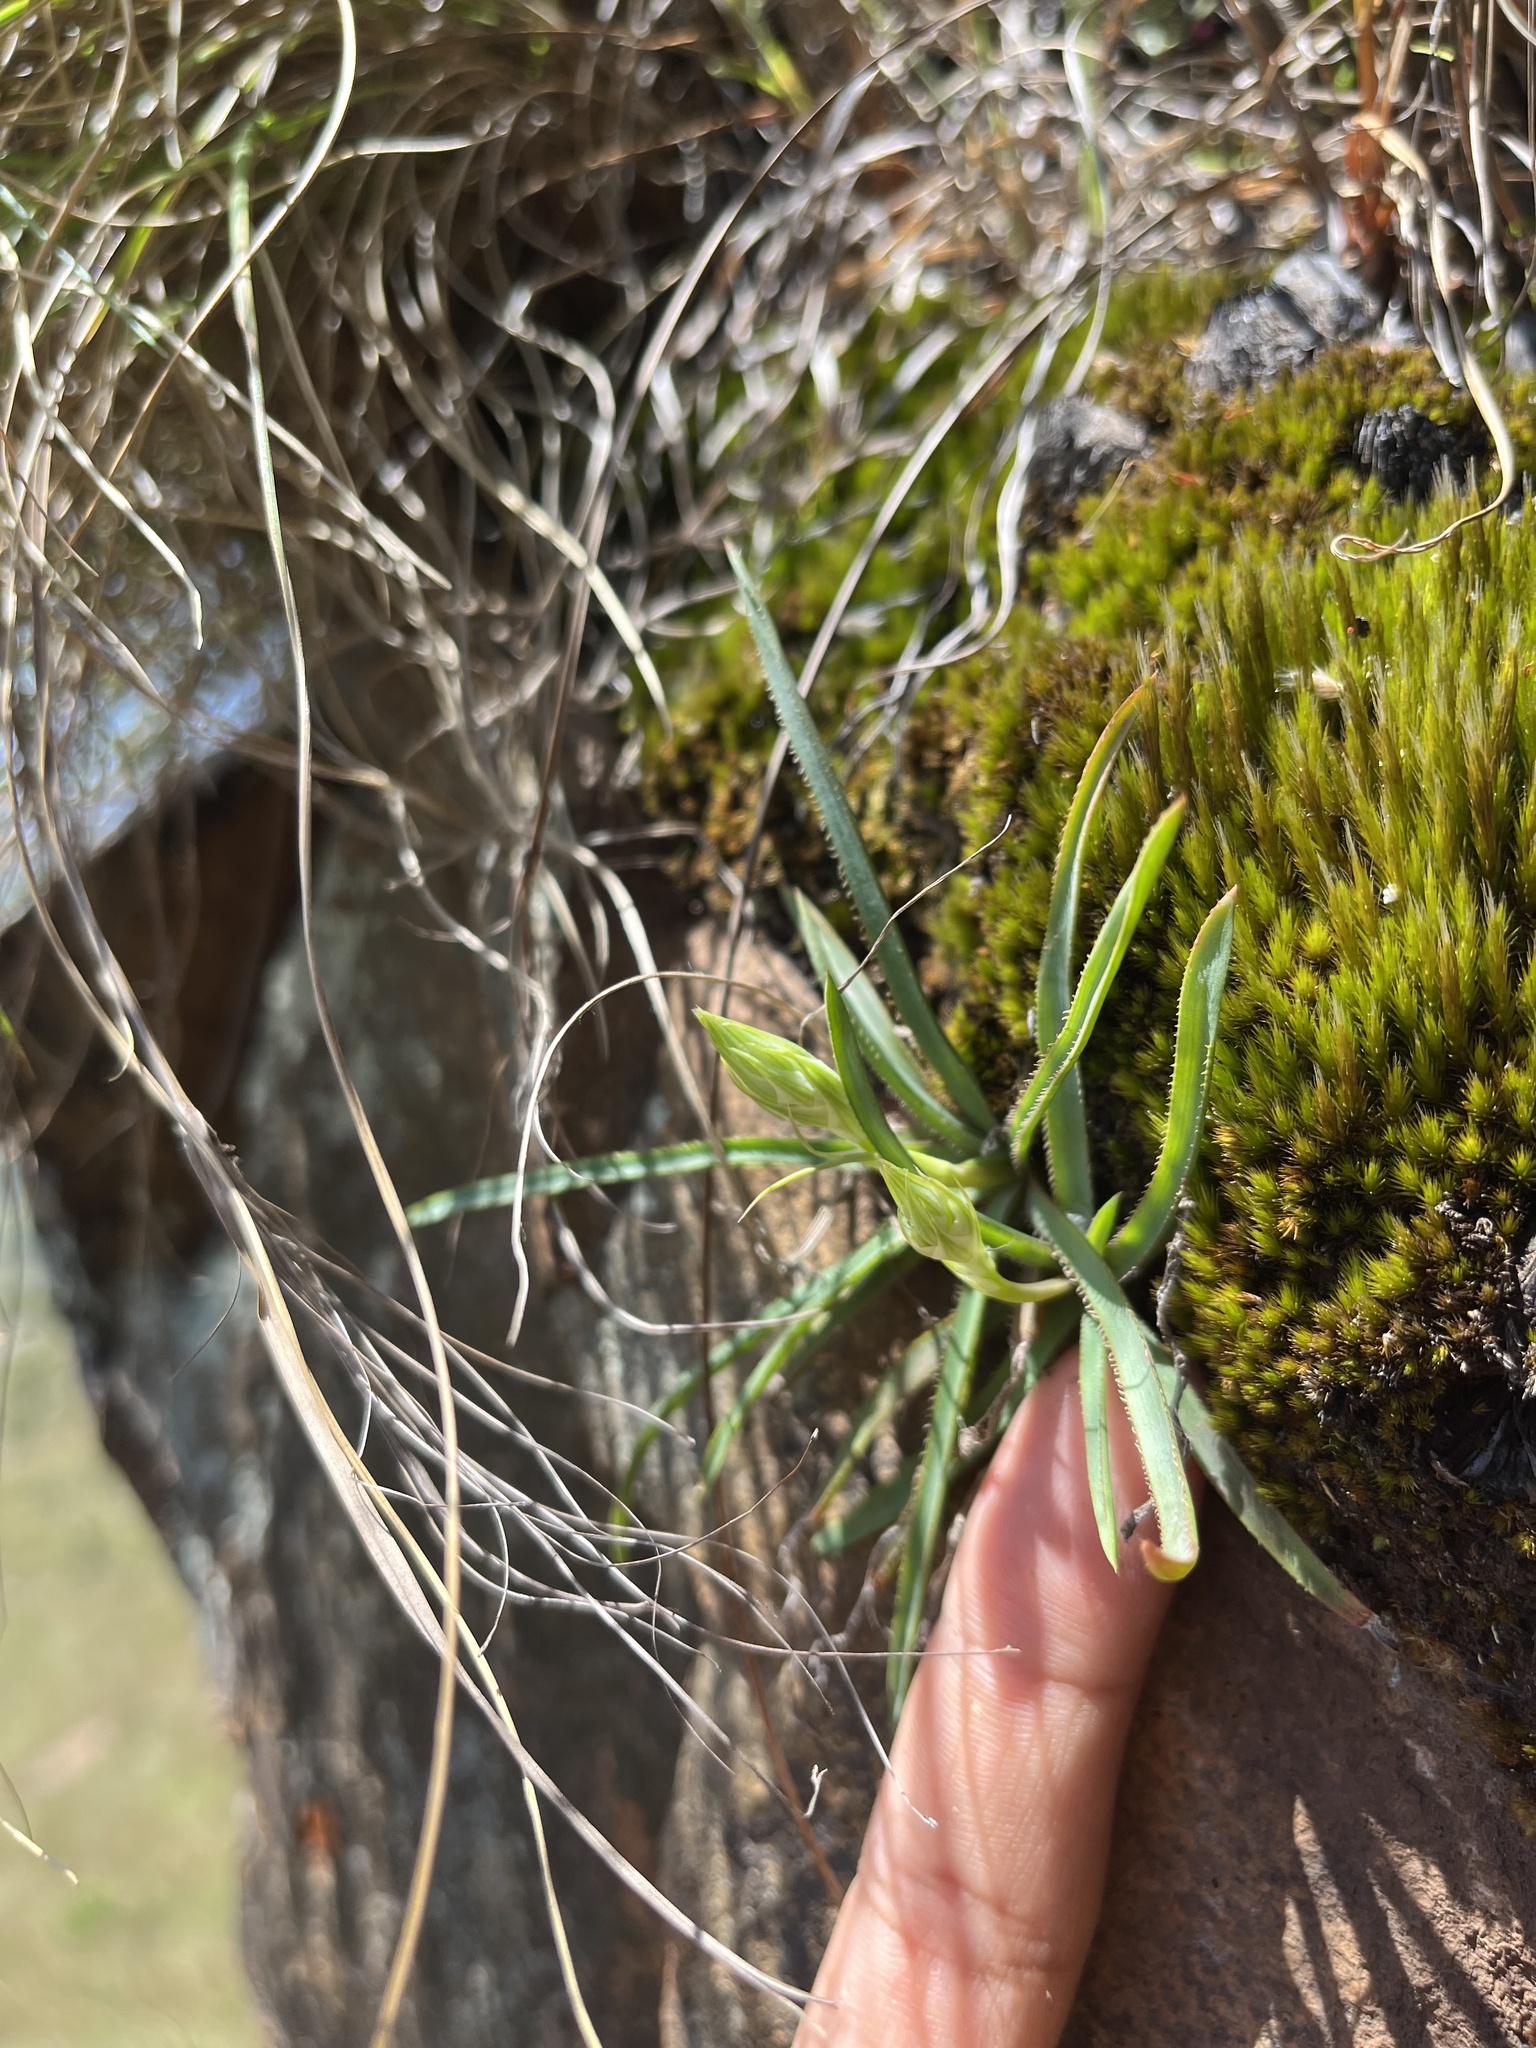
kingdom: Plantae
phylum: Tracheophyta
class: Liliopsida
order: Asparagales
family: Asphodelaceae
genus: Aloe
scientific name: Aloe albida
